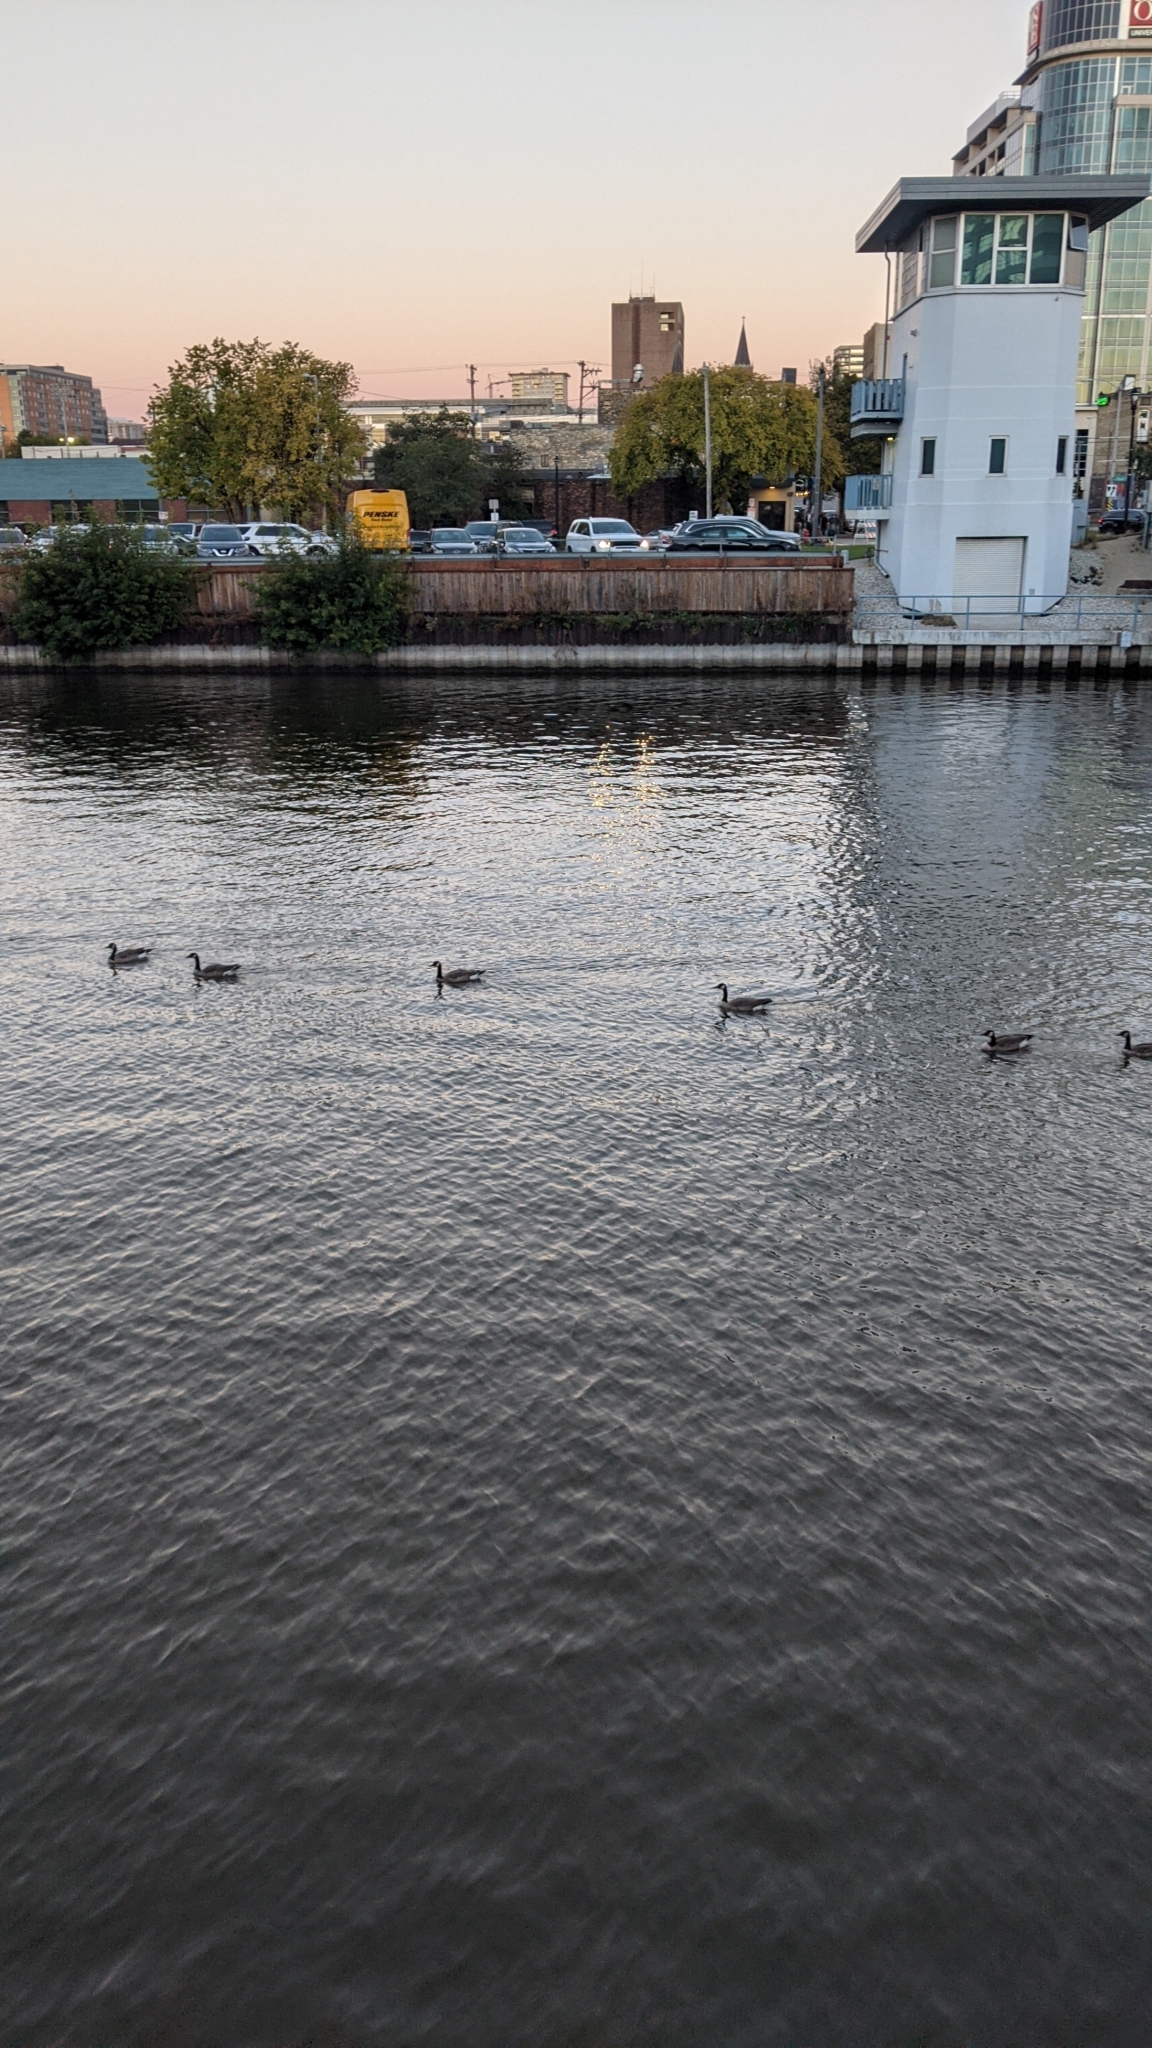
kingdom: Animalia
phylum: Chordata
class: Aves
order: Anseriformes
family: Anatidae
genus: Branta
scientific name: Branta canadensis
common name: Canada goose
